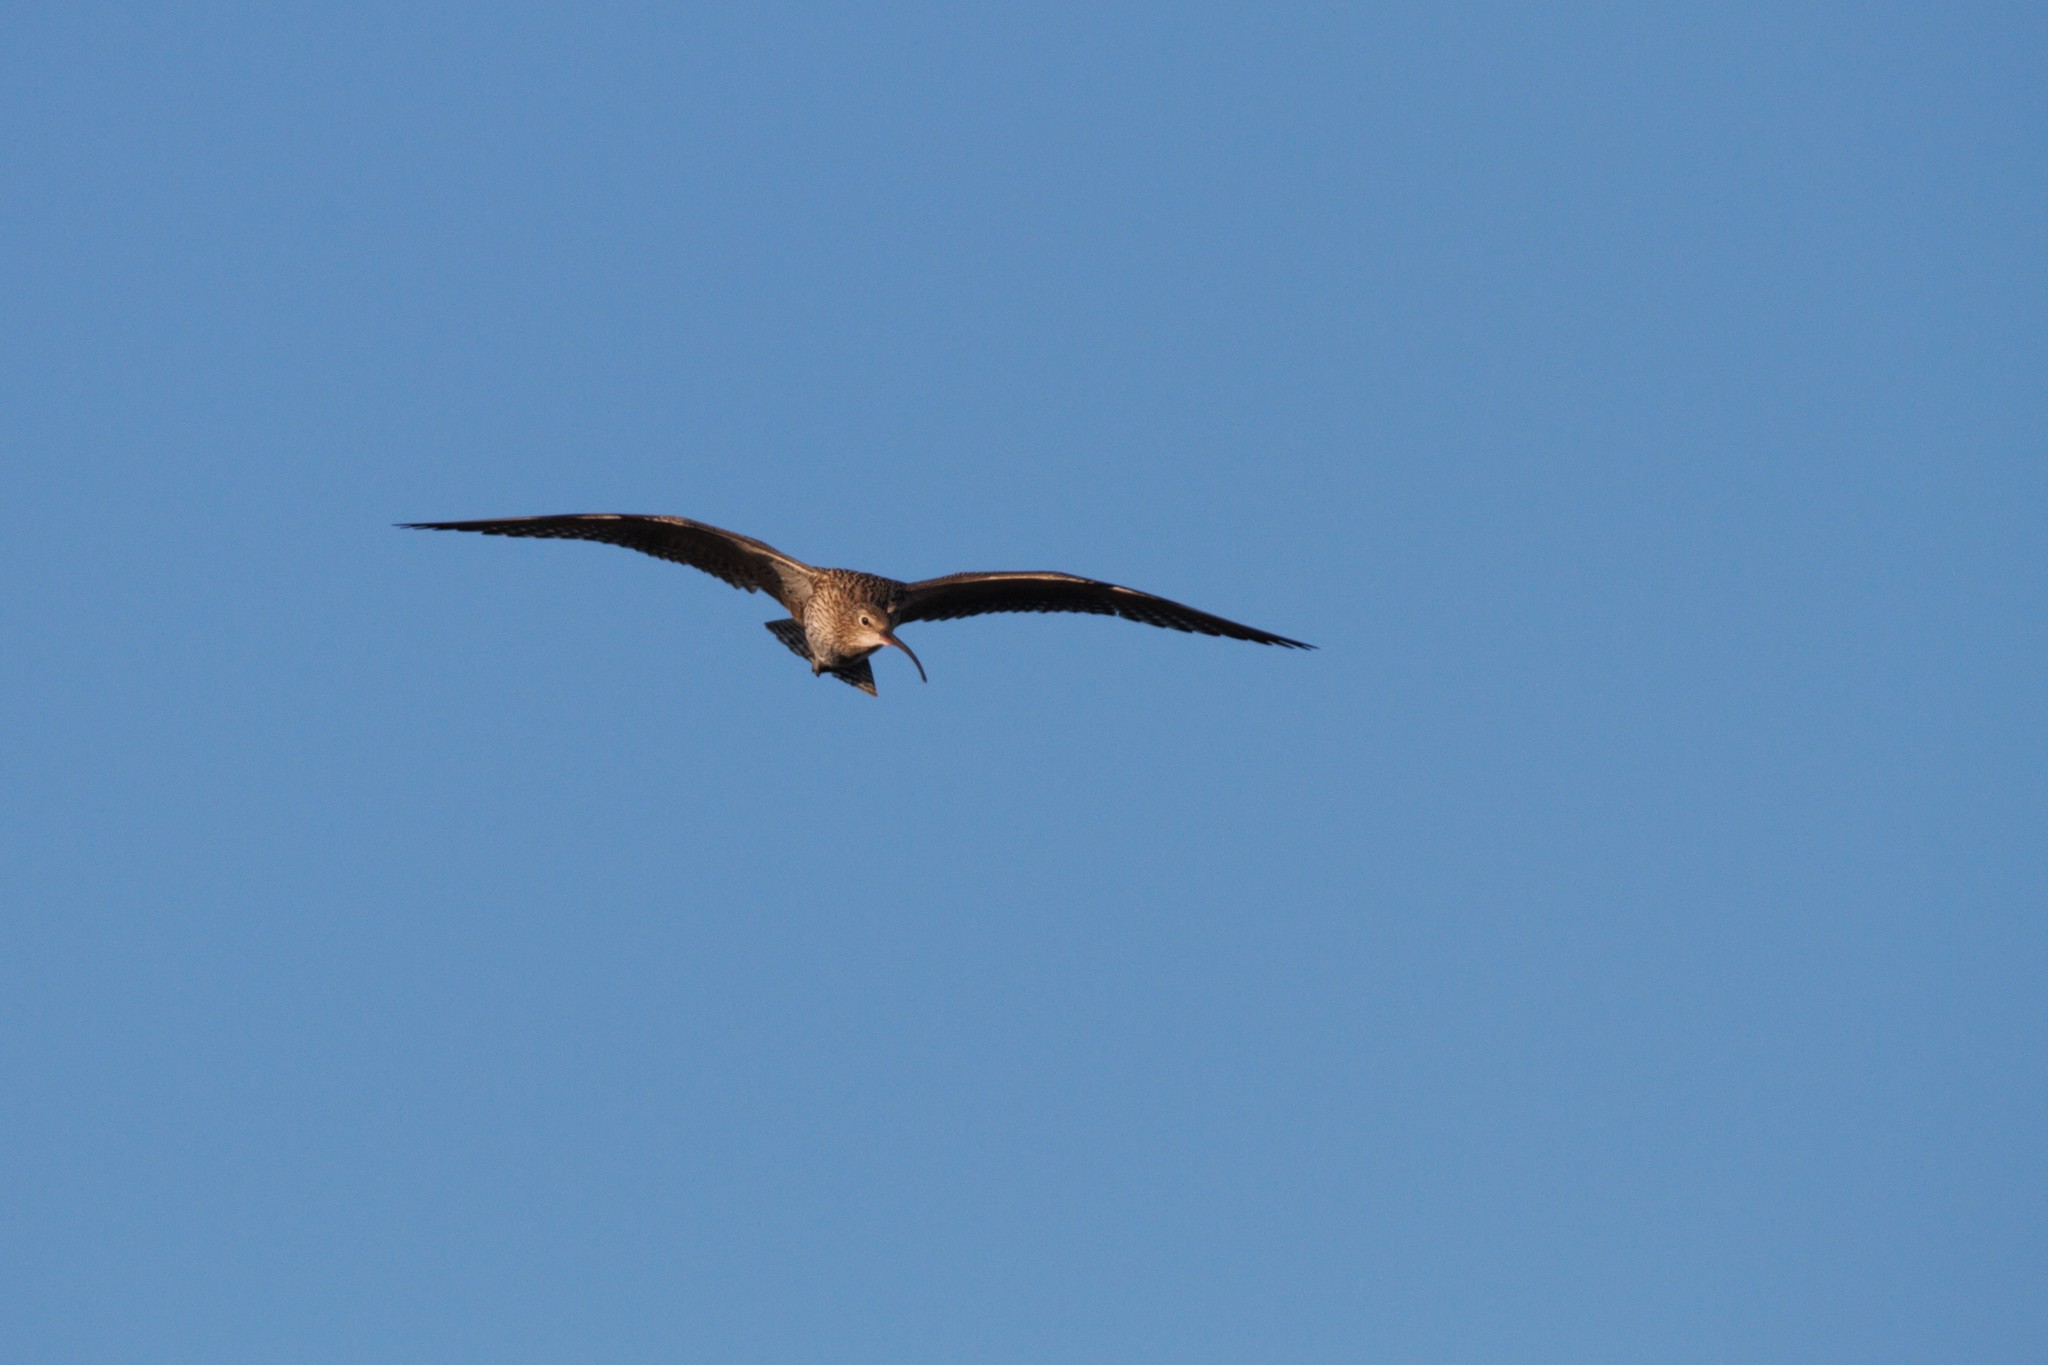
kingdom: Animalia
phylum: Chordata
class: Aves
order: Charadriiformes
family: Scolopacidae
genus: Numenius
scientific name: Numenius arquata
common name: Eurasian curlew
